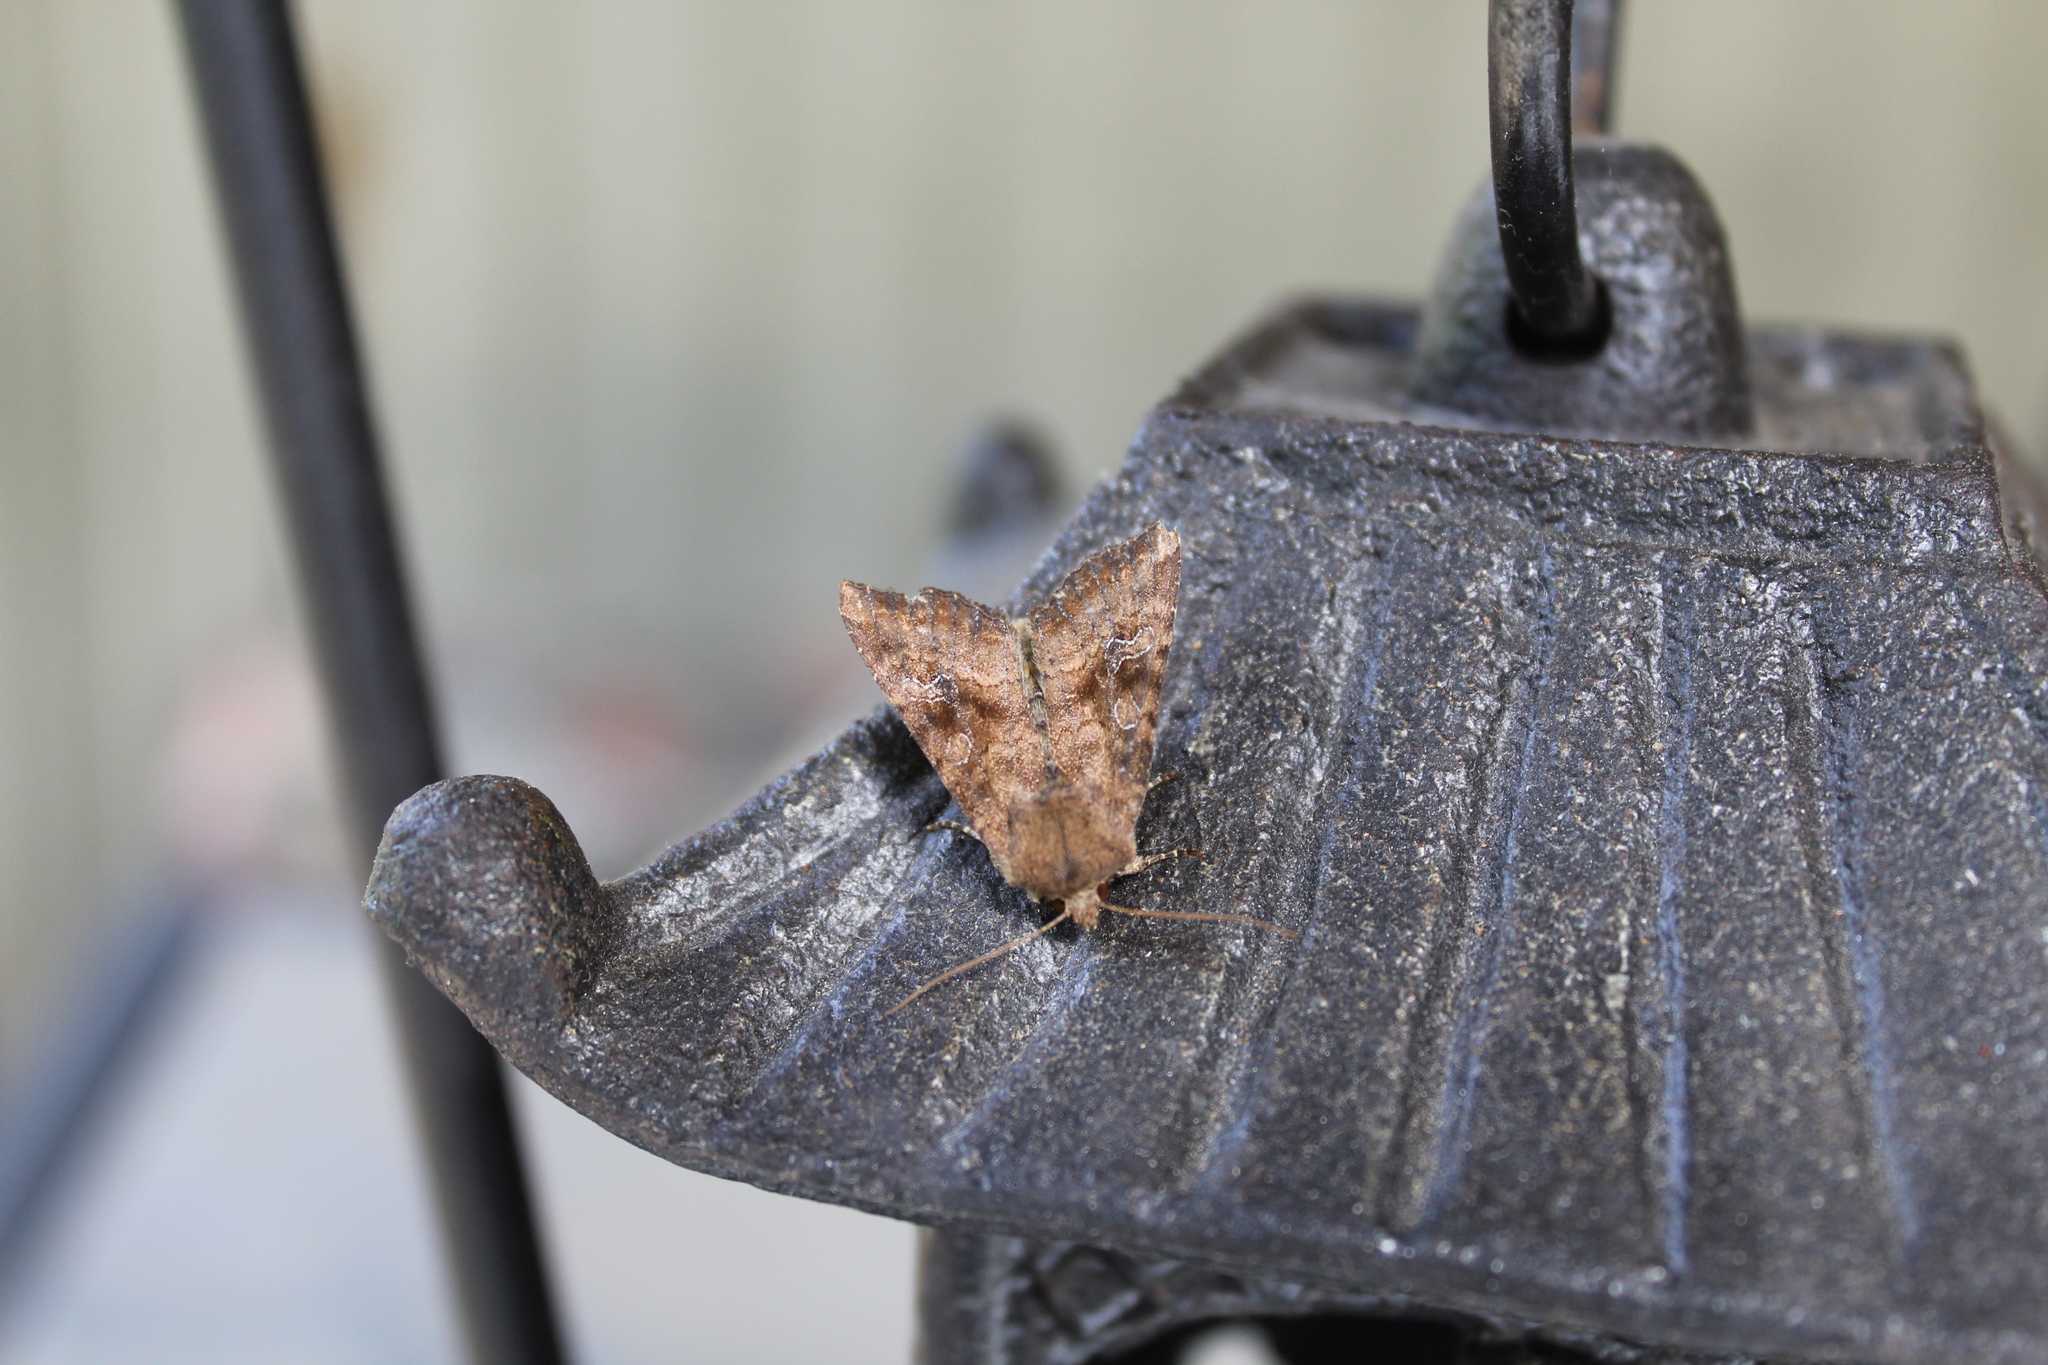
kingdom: Animalia
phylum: Arthropoda
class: Insecta
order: Lepidoptera
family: Noctuidae
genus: Loscopia
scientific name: Loscopia velata
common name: Veiled ear moth
